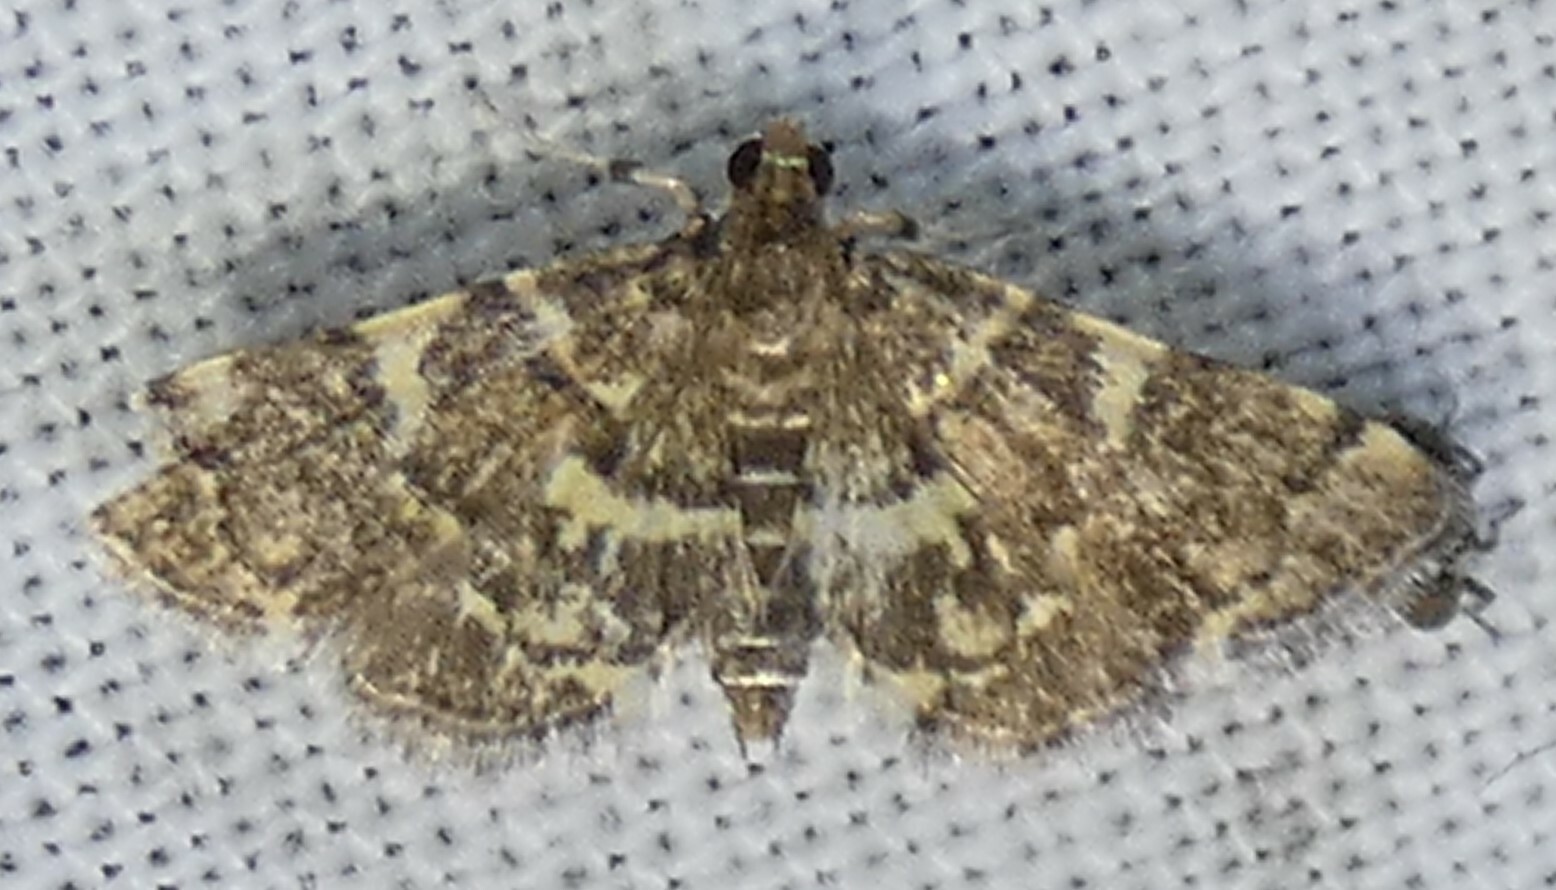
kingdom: Animalia
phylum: Arthropoda
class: Insecta
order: Lepidoptera
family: Crambidae
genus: Anageshna
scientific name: Anageshna primordialis
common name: Yellow-spotted webworm moth
